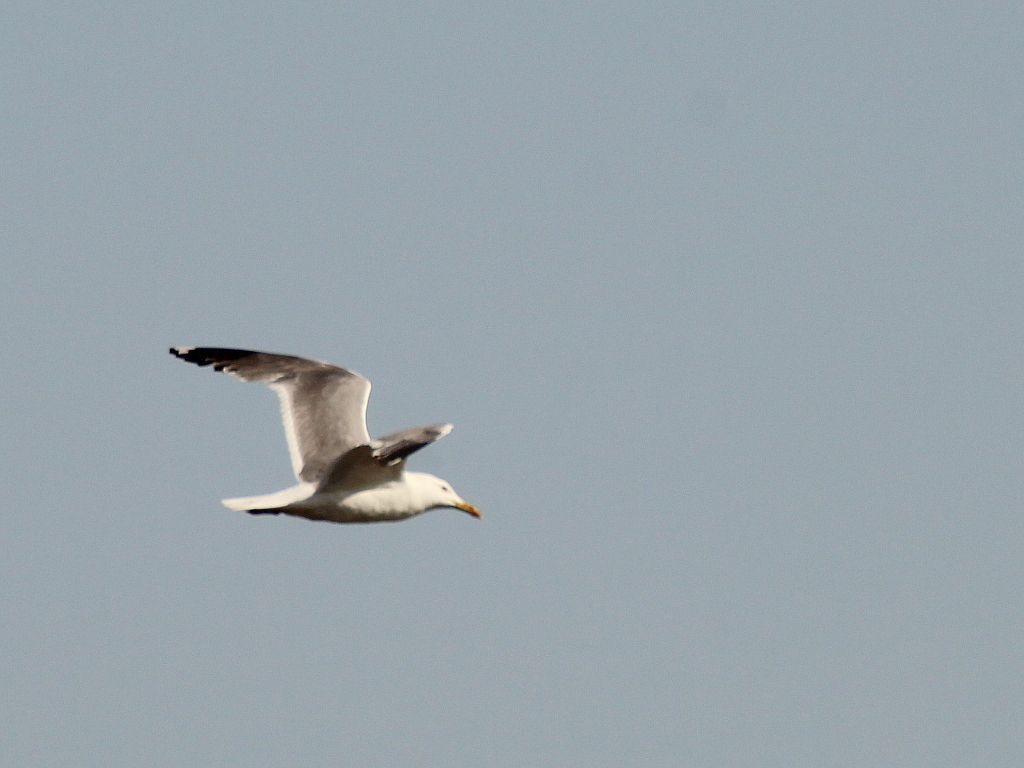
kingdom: Animalia
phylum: Chordata
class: Aves
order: Charadriiformes
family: Laridae
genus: Larus
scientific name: Larus fuscus
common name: Lesser black-backed gull
